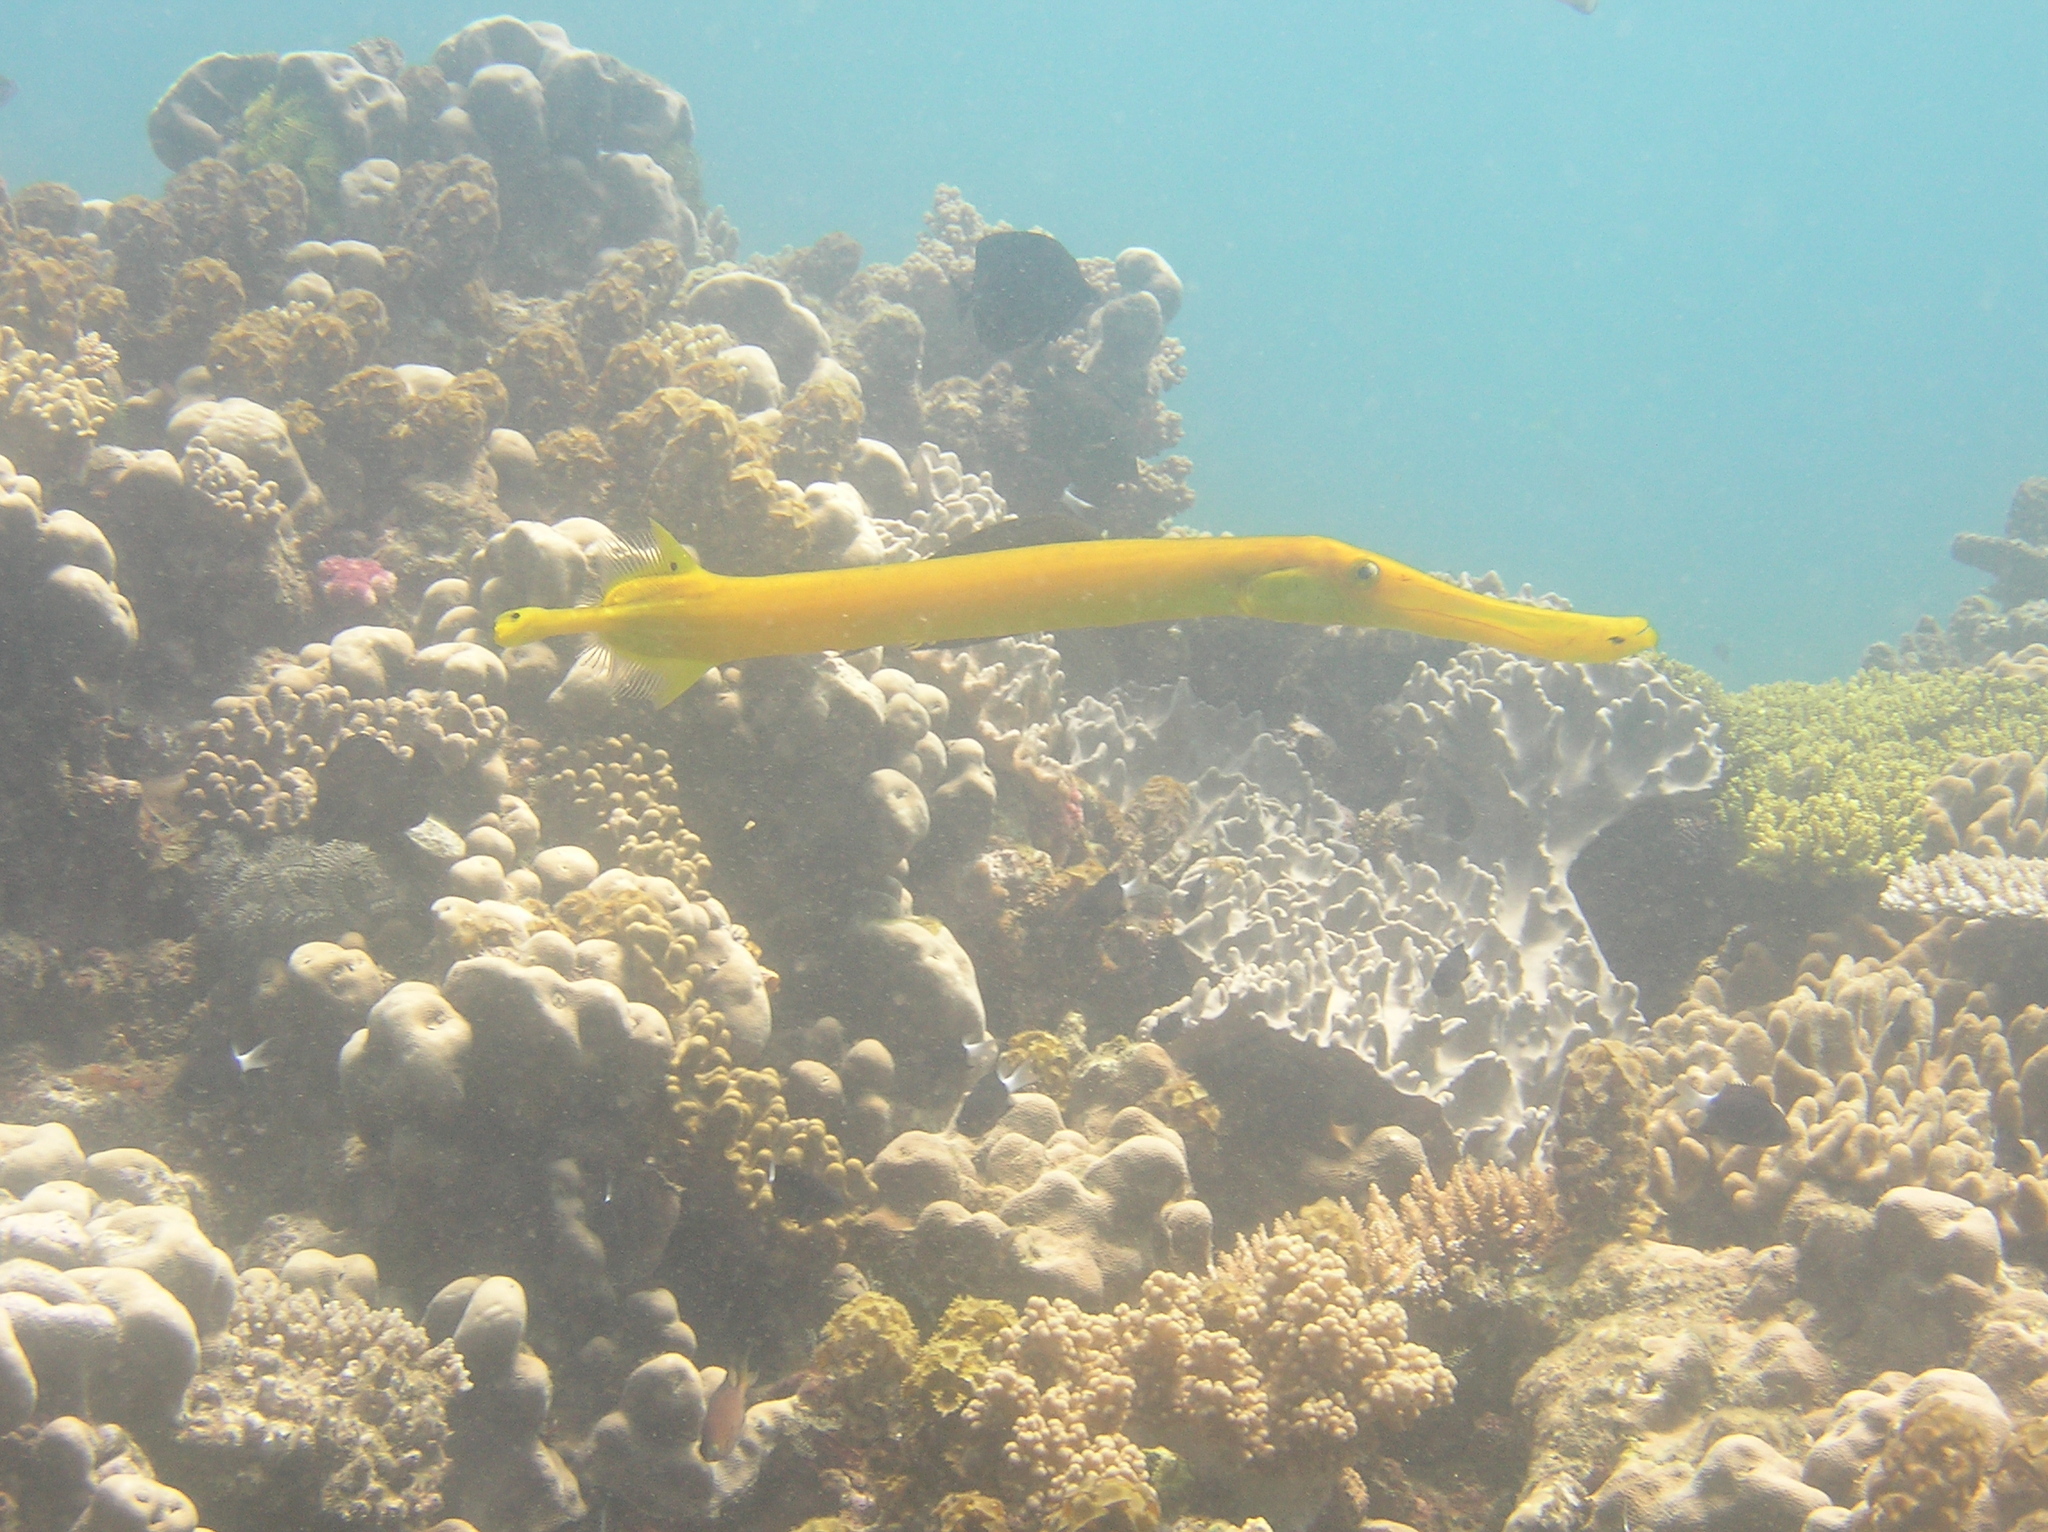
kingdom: Animalia
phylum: Chordata
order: Syngnathiformes
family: Aulostomidae
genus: Aulostomus
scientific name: Aulostomus chinensis
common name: Chinese trumpetfish
